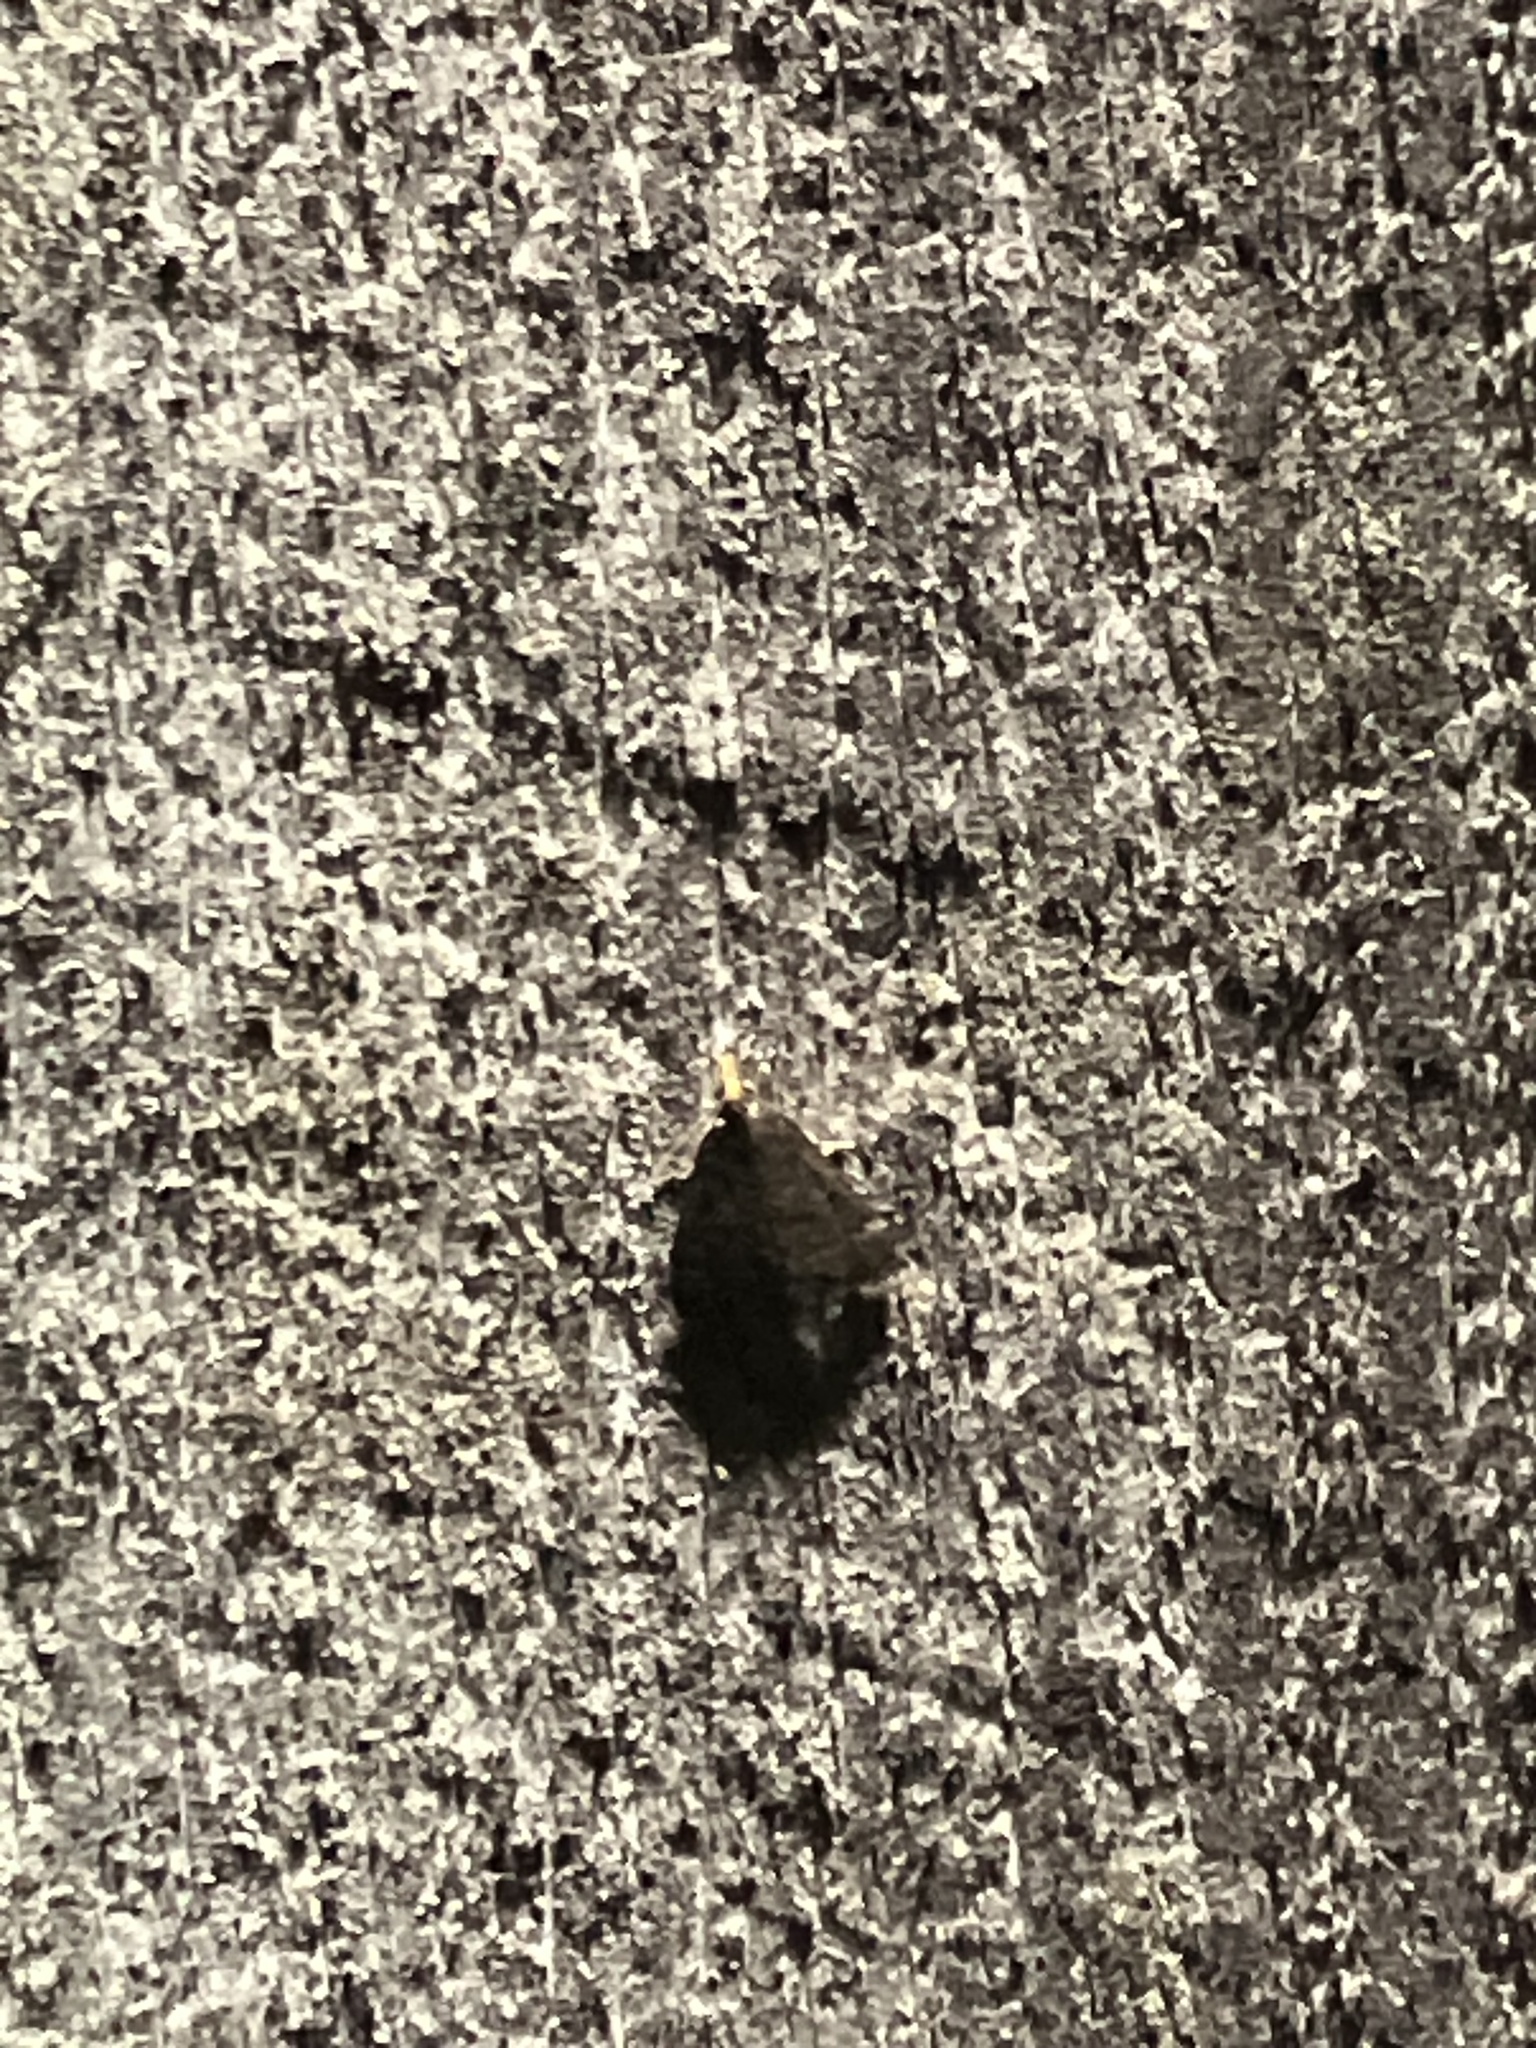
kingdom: Animalia
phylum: Arthropoda
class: Insecta
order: Lepidoptera
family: Crambidae
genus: Pyrausta
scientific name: Pyrausta merrickalis
